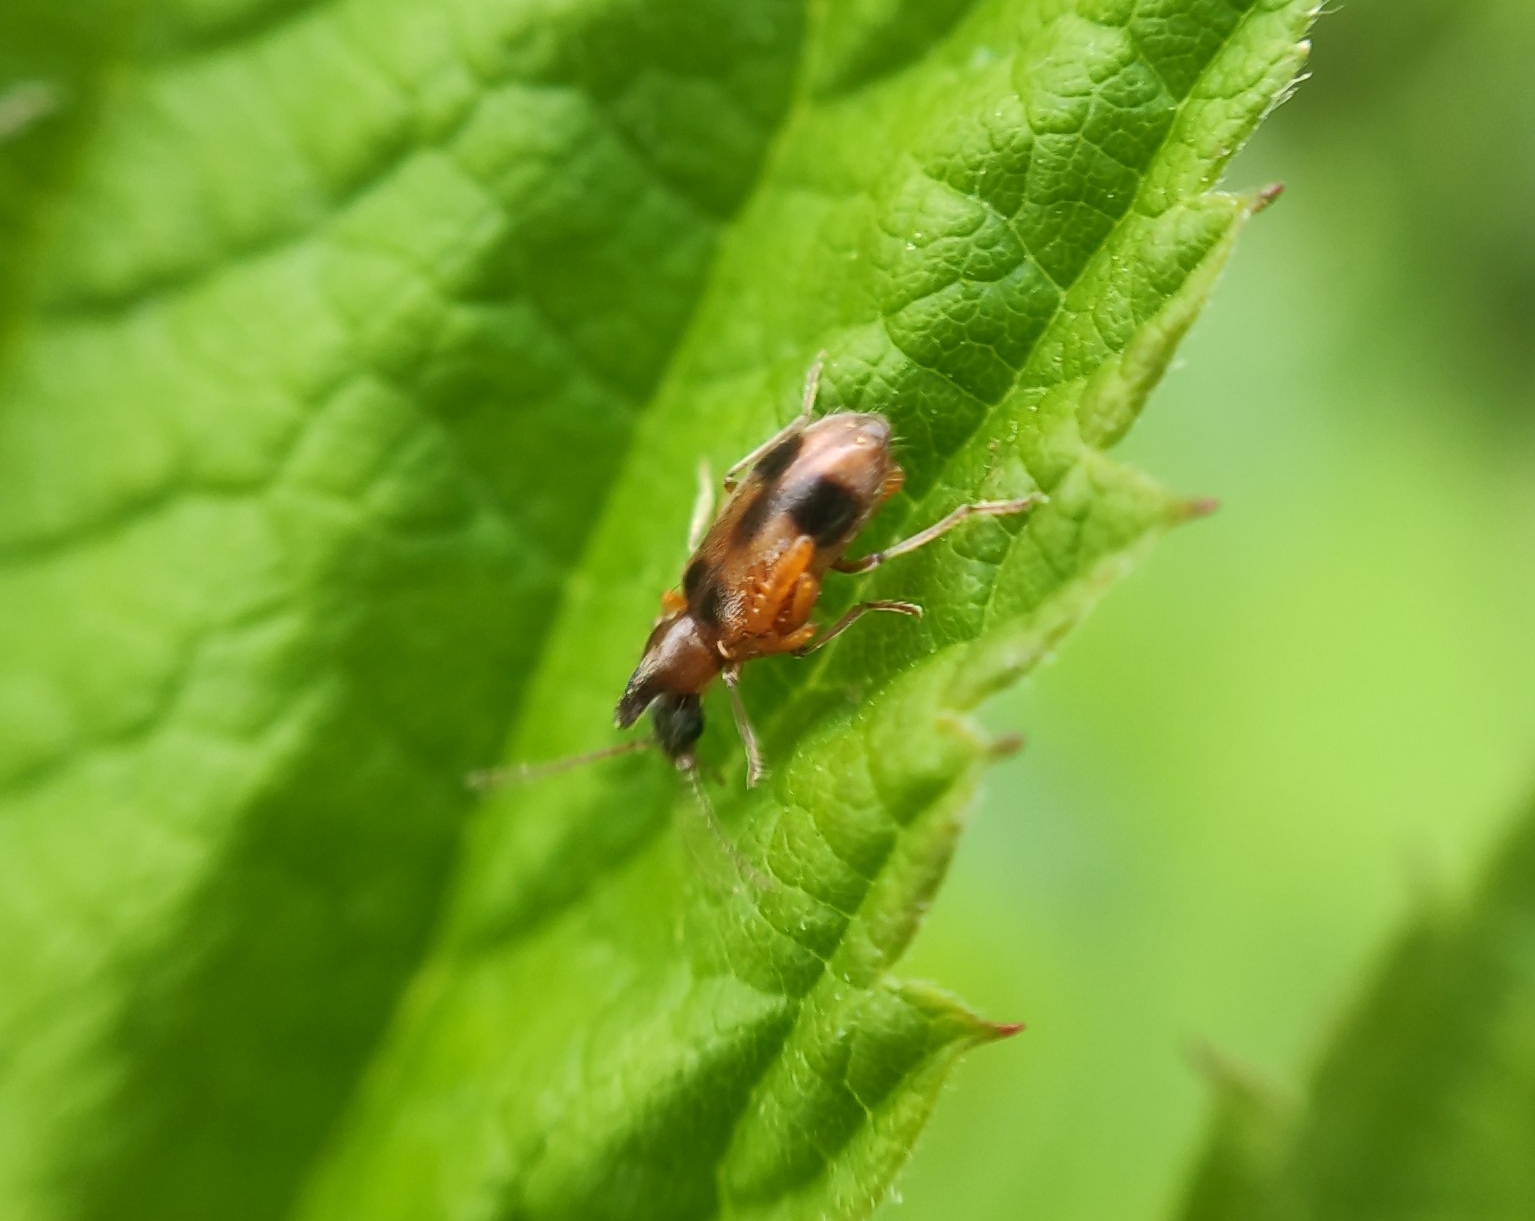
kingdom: Animalia
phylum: Arthropoda
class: Insecta
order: Coleoptera
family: Anthicidae
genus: Notoxus
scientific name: Notoxus monoceros
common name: Monoceros beetle
